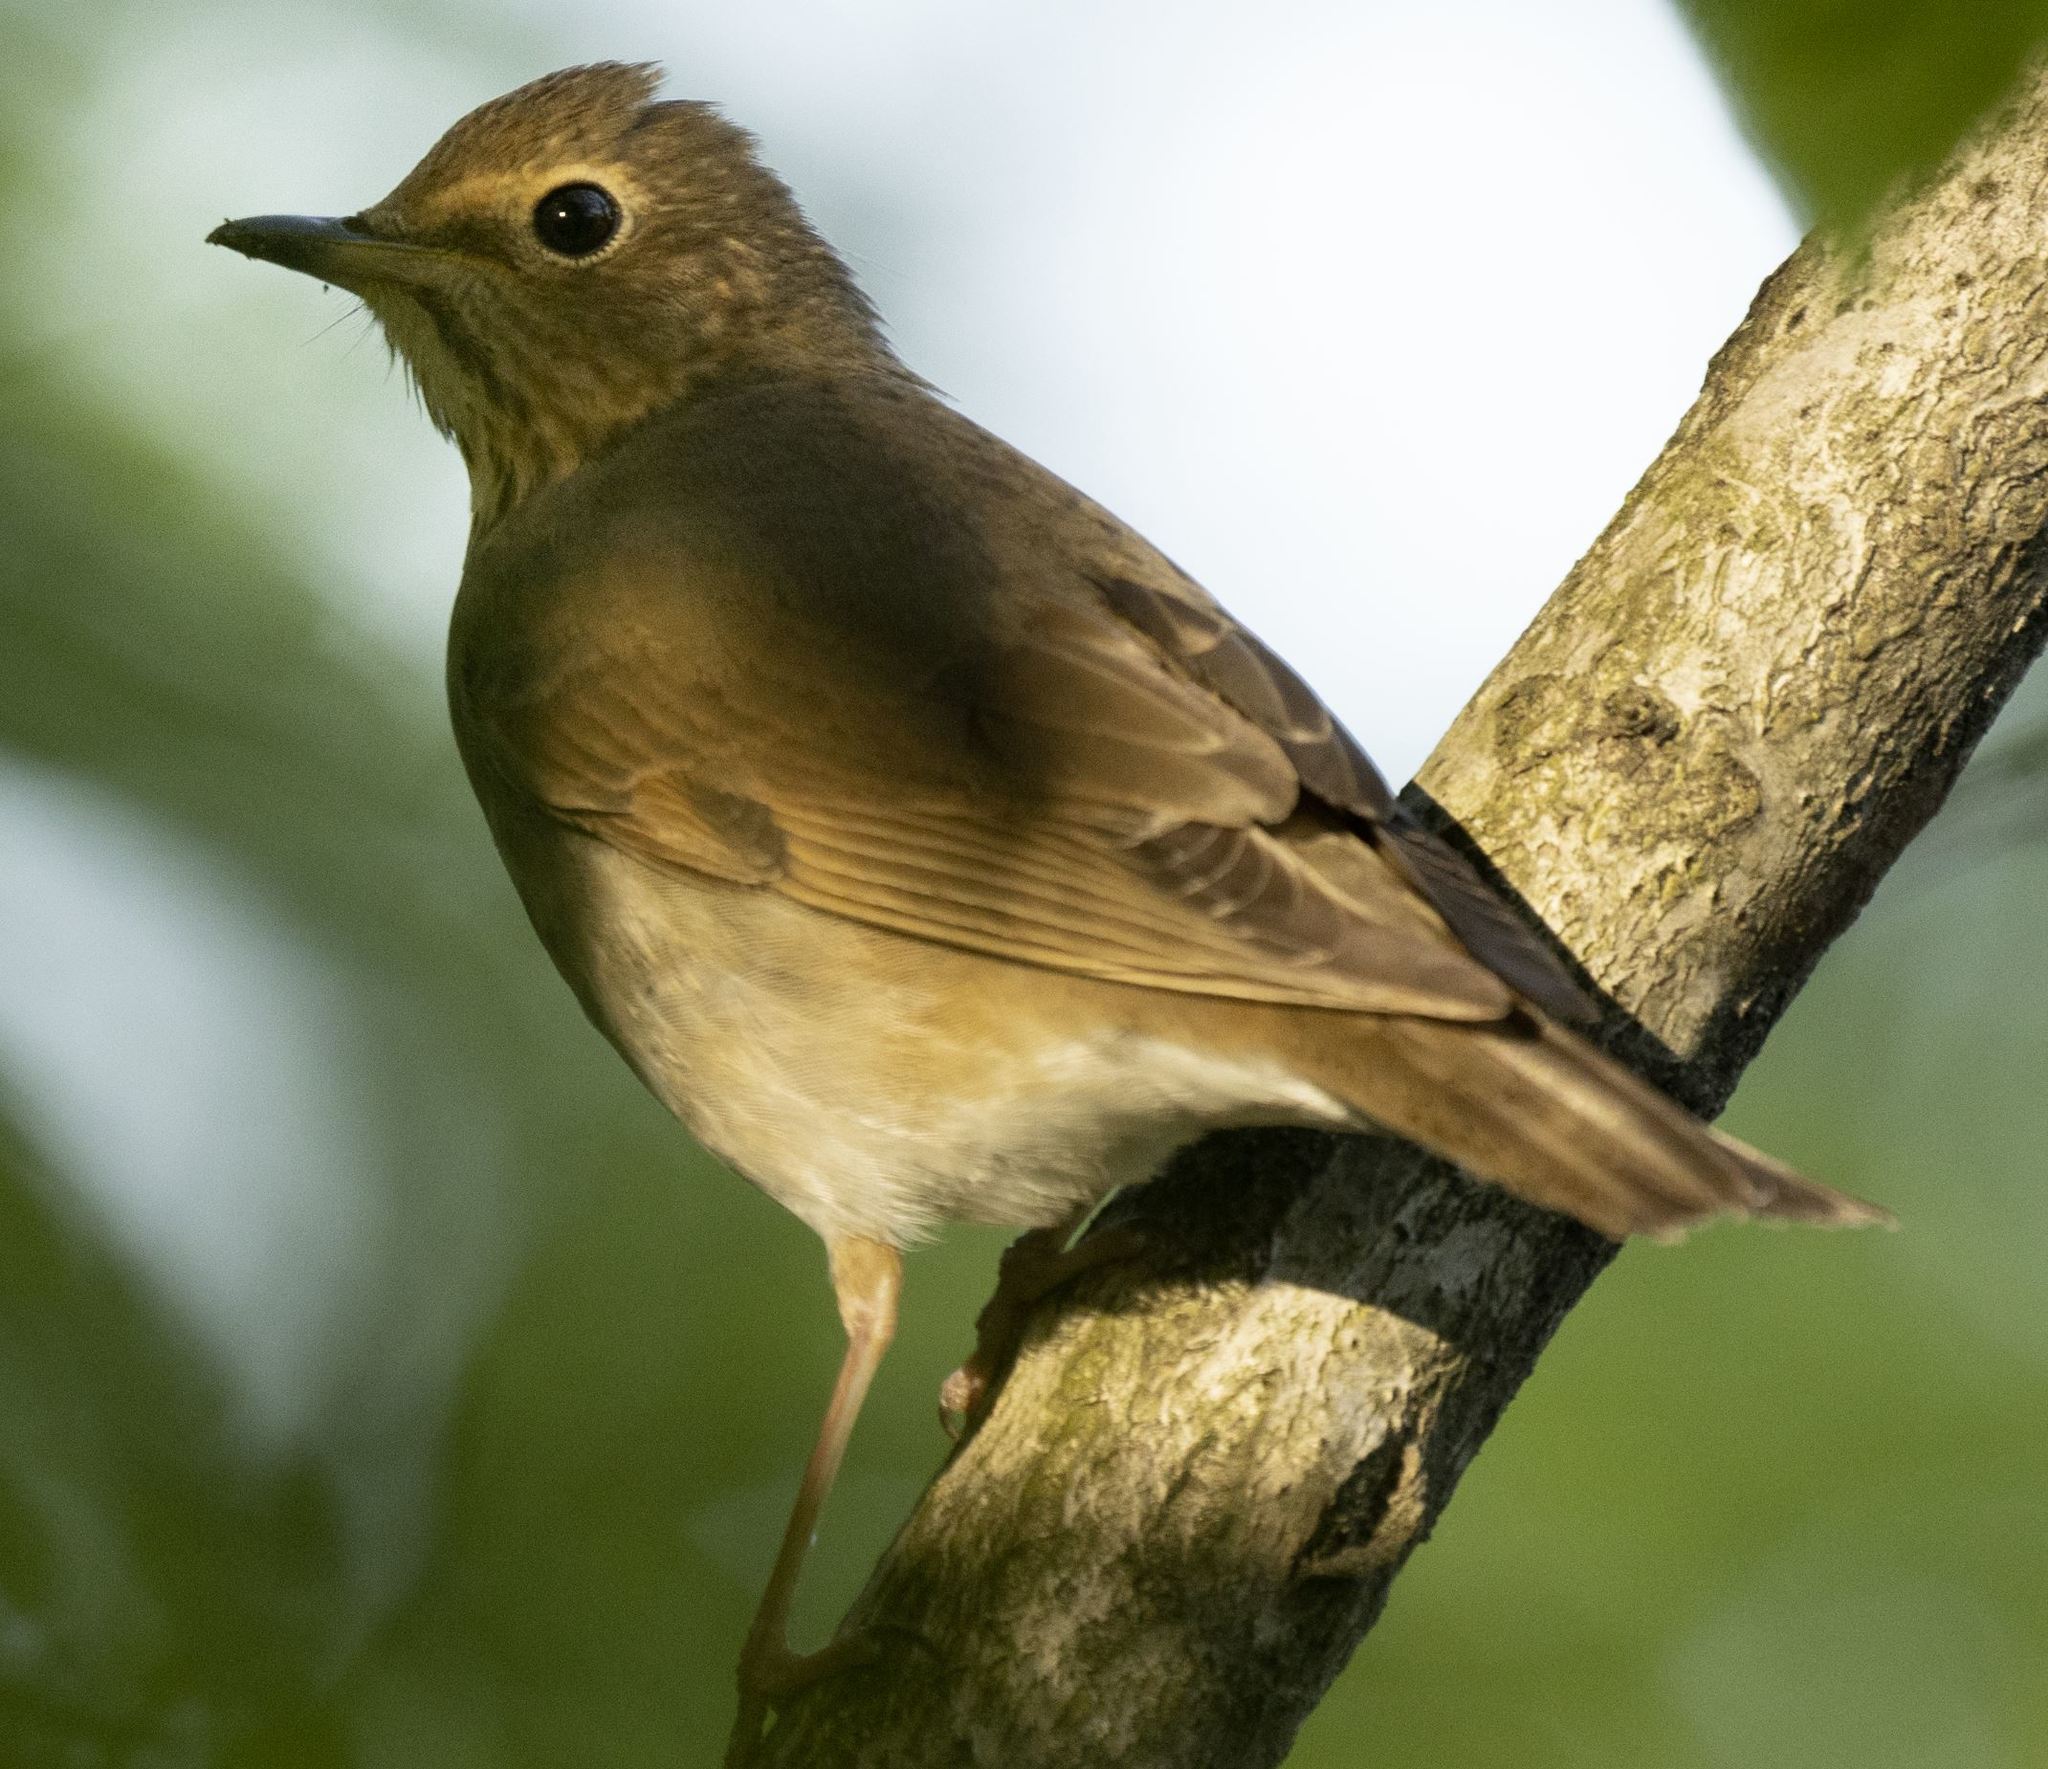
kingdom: Animalia
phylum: Chordata
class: Aves
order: Passeriformes
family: Turdidae
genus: Catharus
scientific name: Catharus ustulatus
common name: Swainson's thrush
